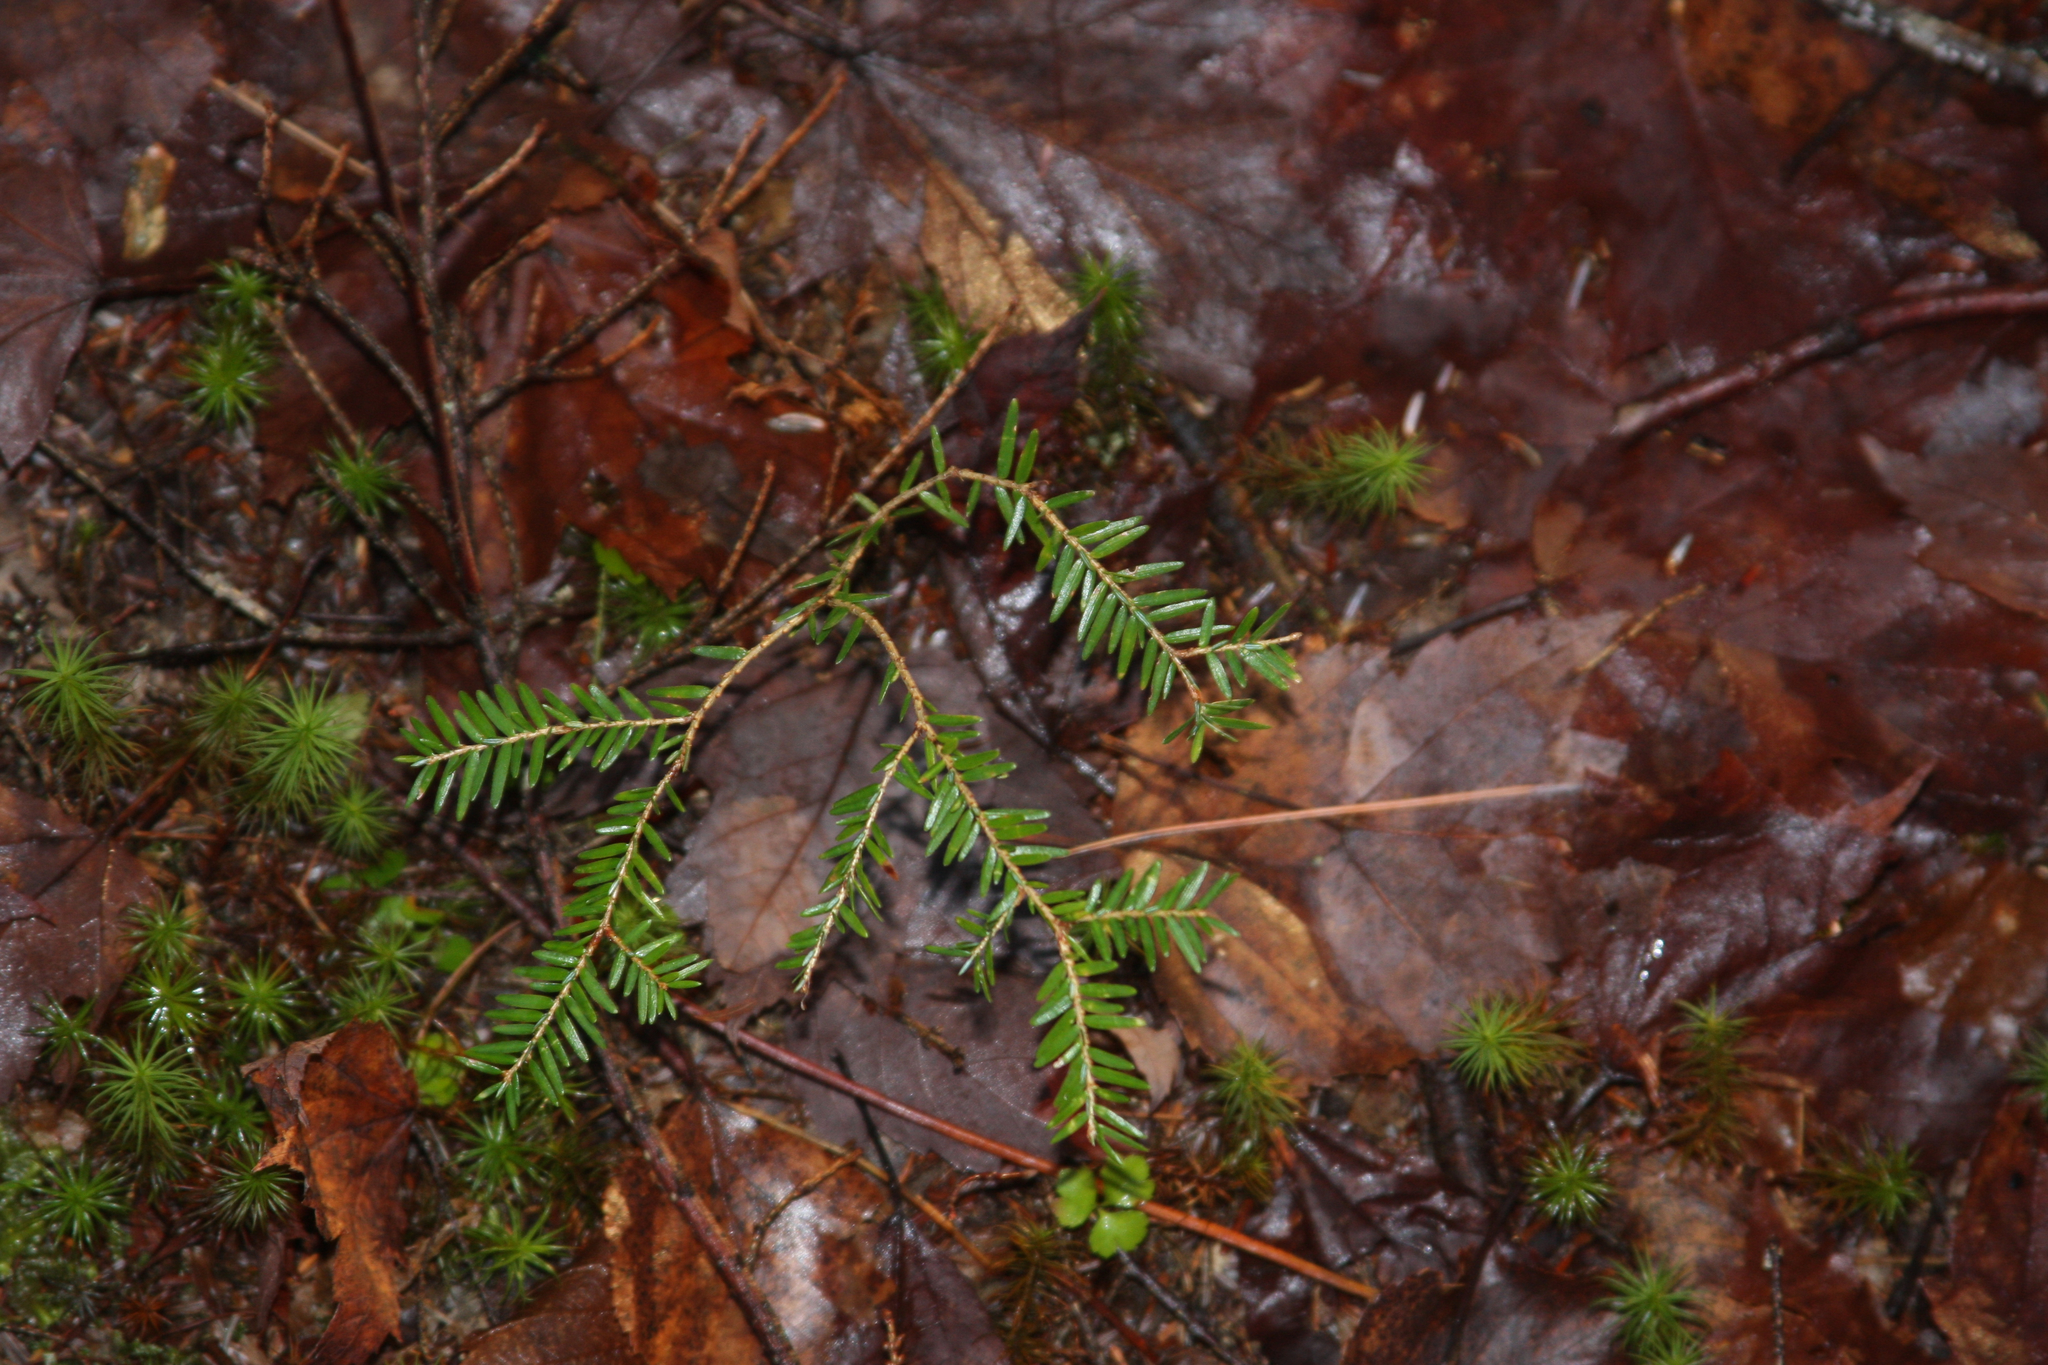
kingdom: Plantae
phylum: Tracheophyta
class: Pinopsida
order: Pinales
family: Pinaceae
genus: Tsuga
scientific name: Tsuga canadensis
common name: Eastern hemlock
